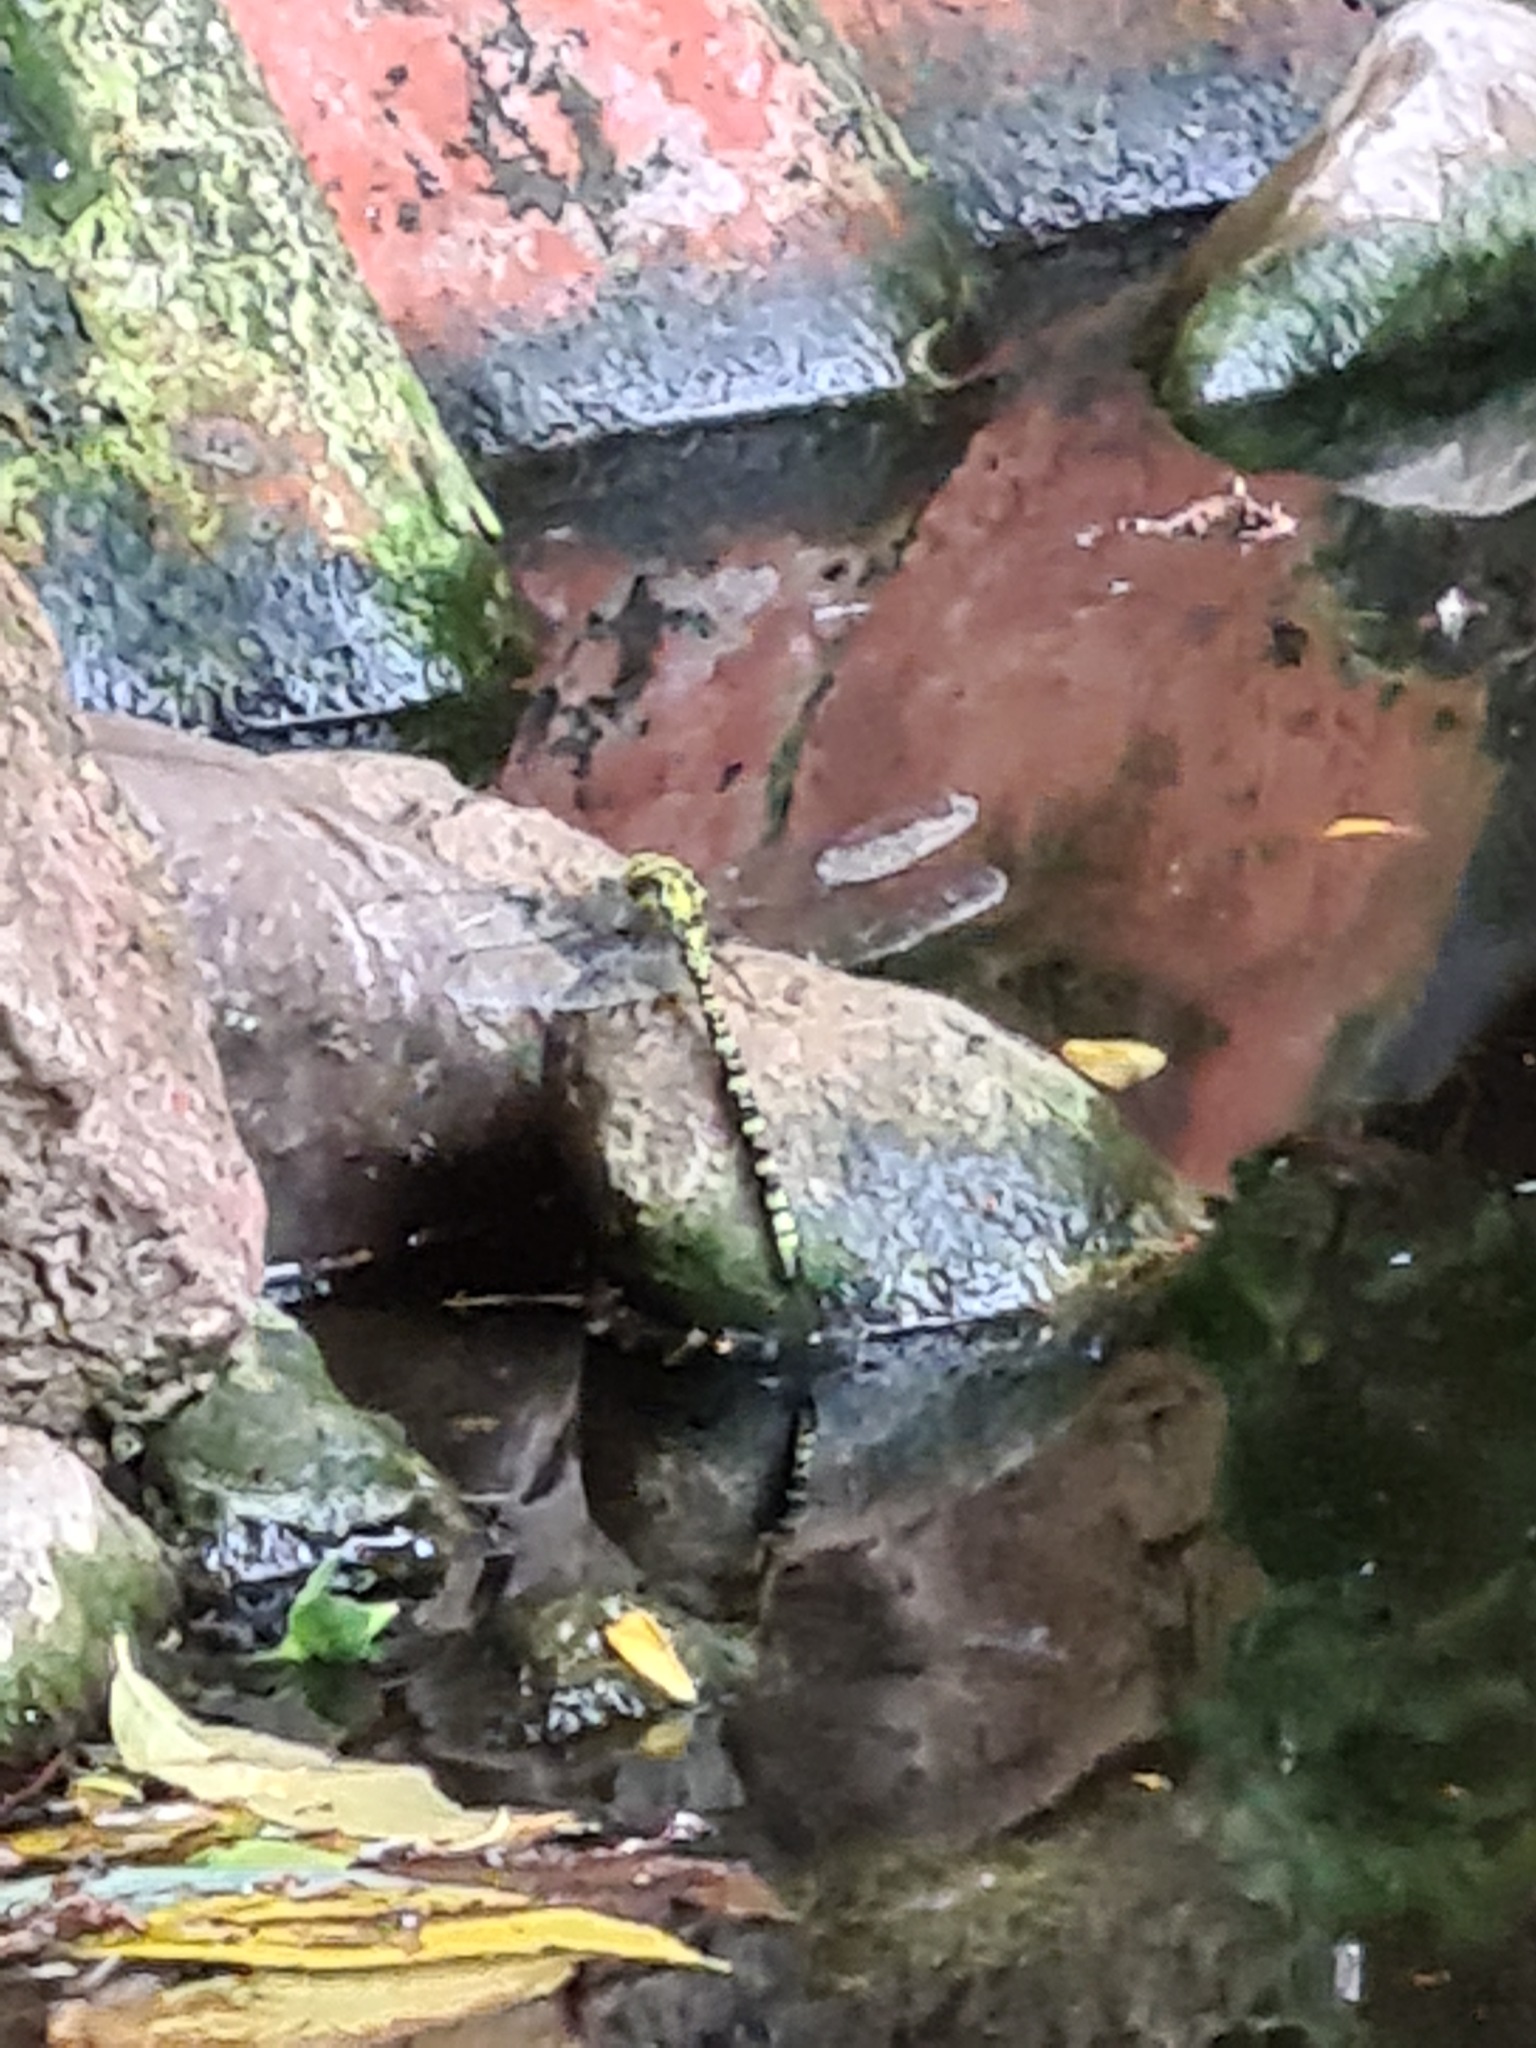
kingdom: Animalia
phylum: Arthropoda
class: Insecta
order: Odonata
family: Aeshnidae
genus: Aeshna
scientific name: Aeshna cyanea
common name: Southern hawker
